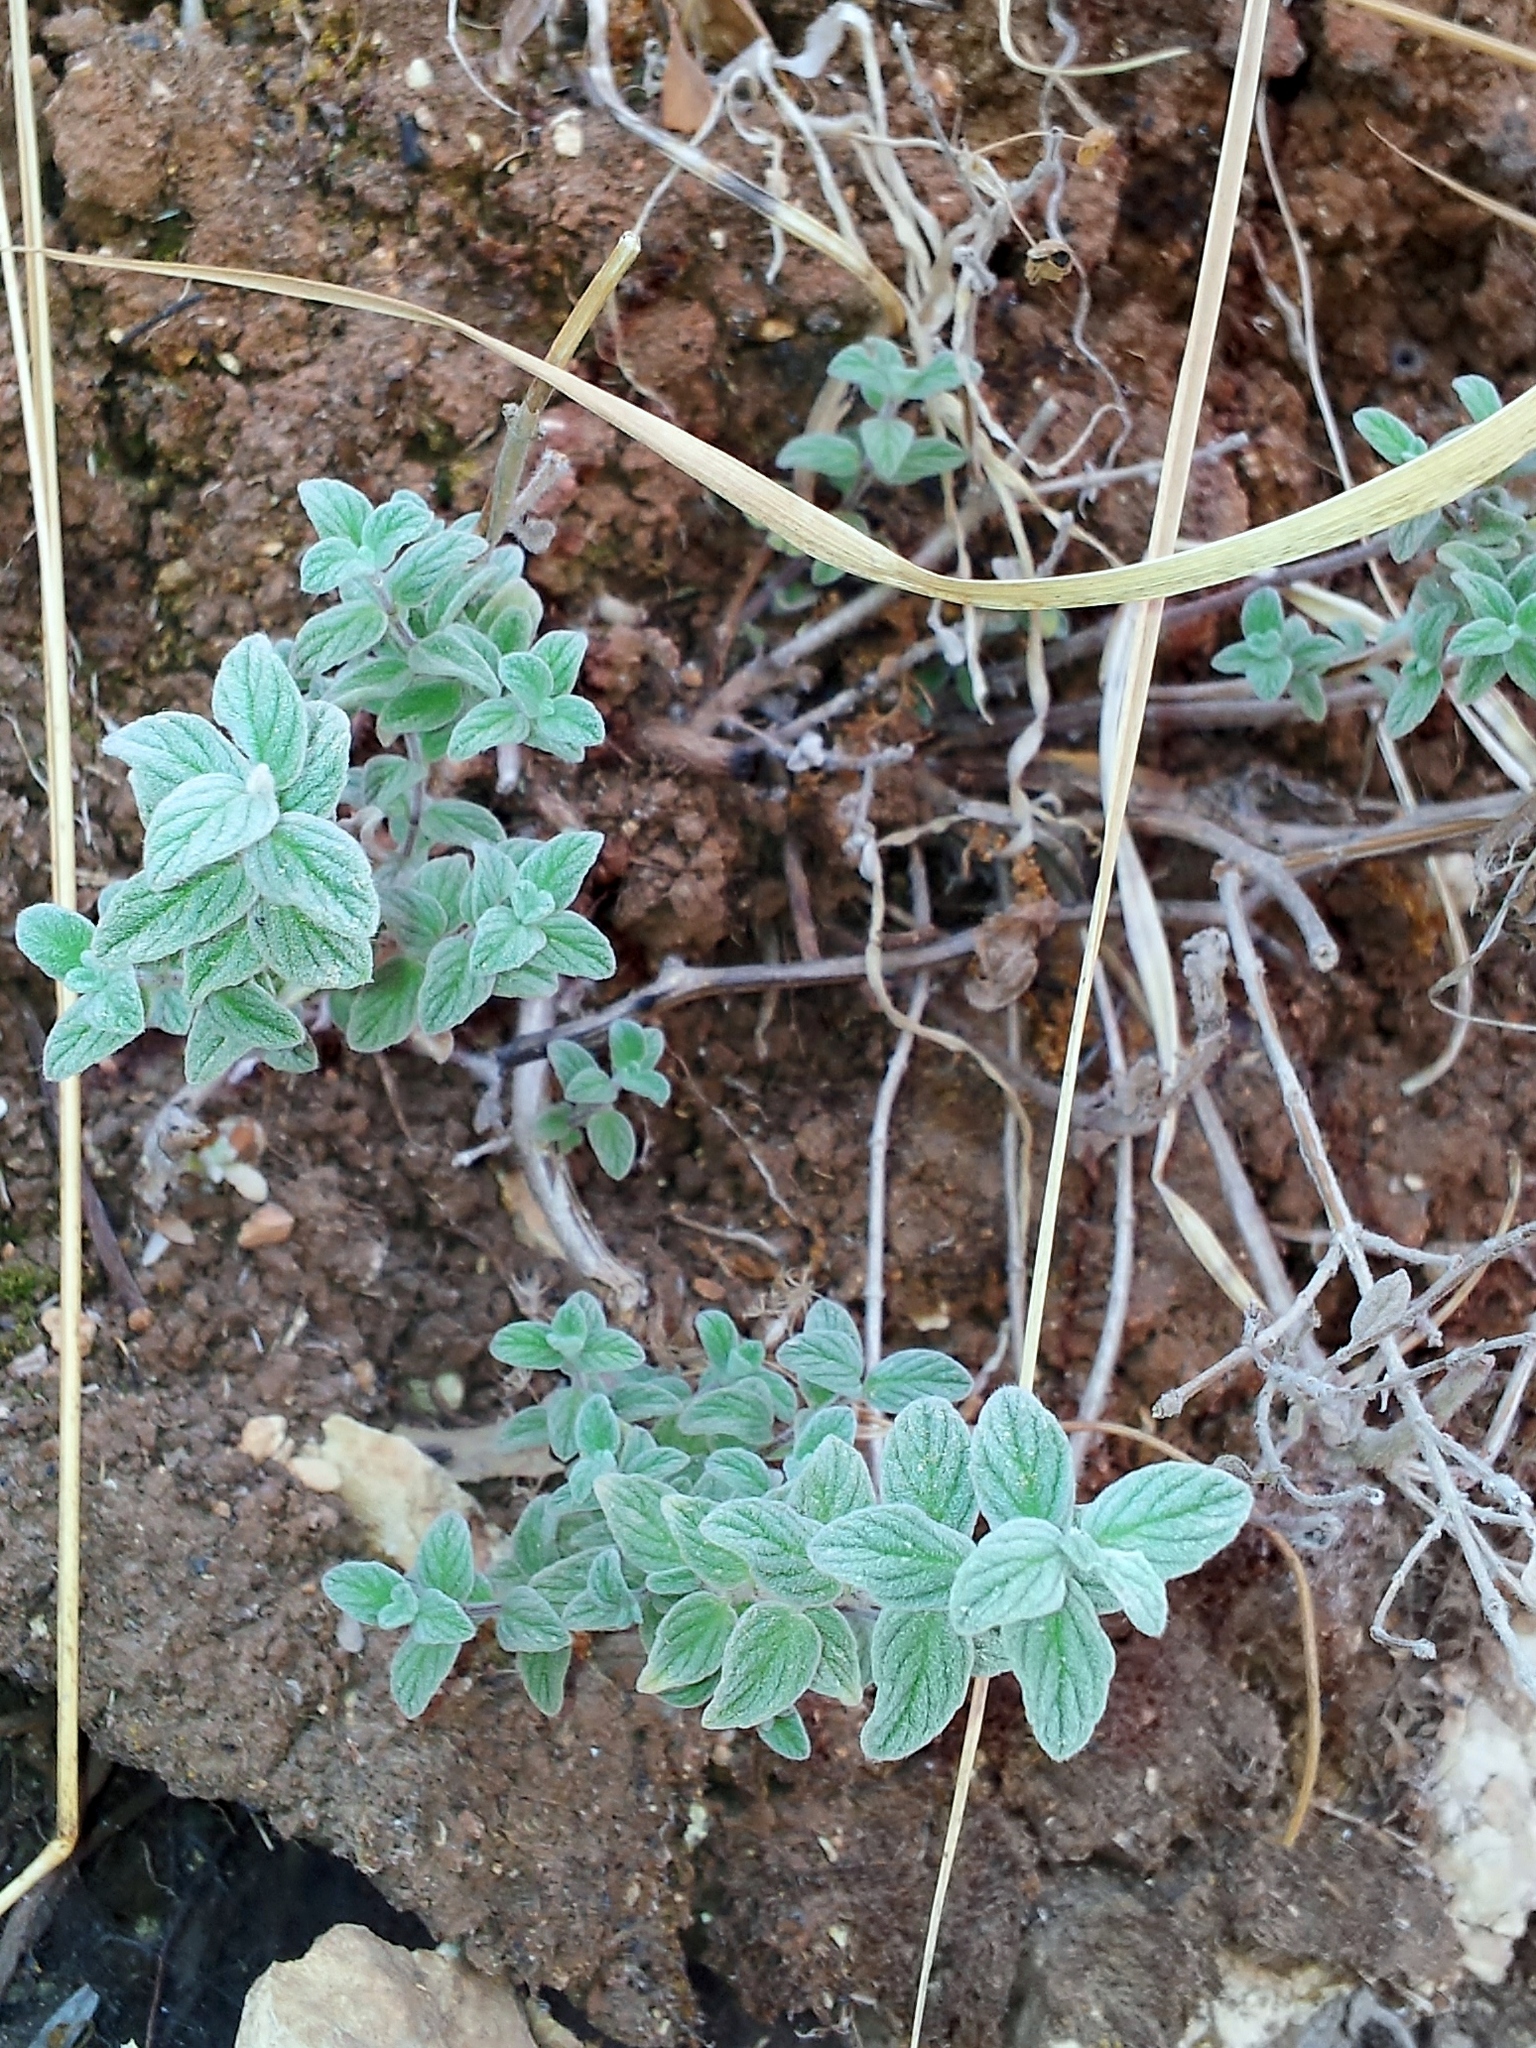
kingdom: Plantae
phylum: Tracheophyta
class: Magnoliopsida
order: Lamiales
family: Lamiaceae
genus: Origanum
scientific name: Origanum syriacum
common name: Biblical-hyssop
